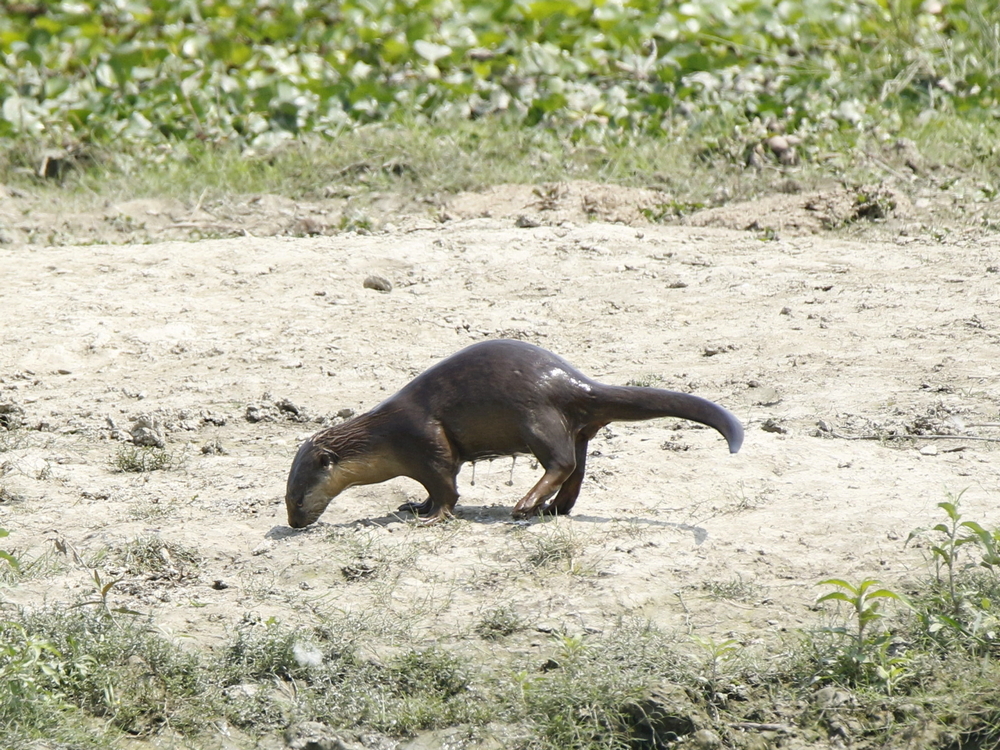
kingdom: Animalia
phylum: Chordata
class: Mammalia
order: Carnivora
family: Mustelidae
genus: Lutrogale
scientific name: Lutrogale perspicillata
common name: Smooth-coated otter
